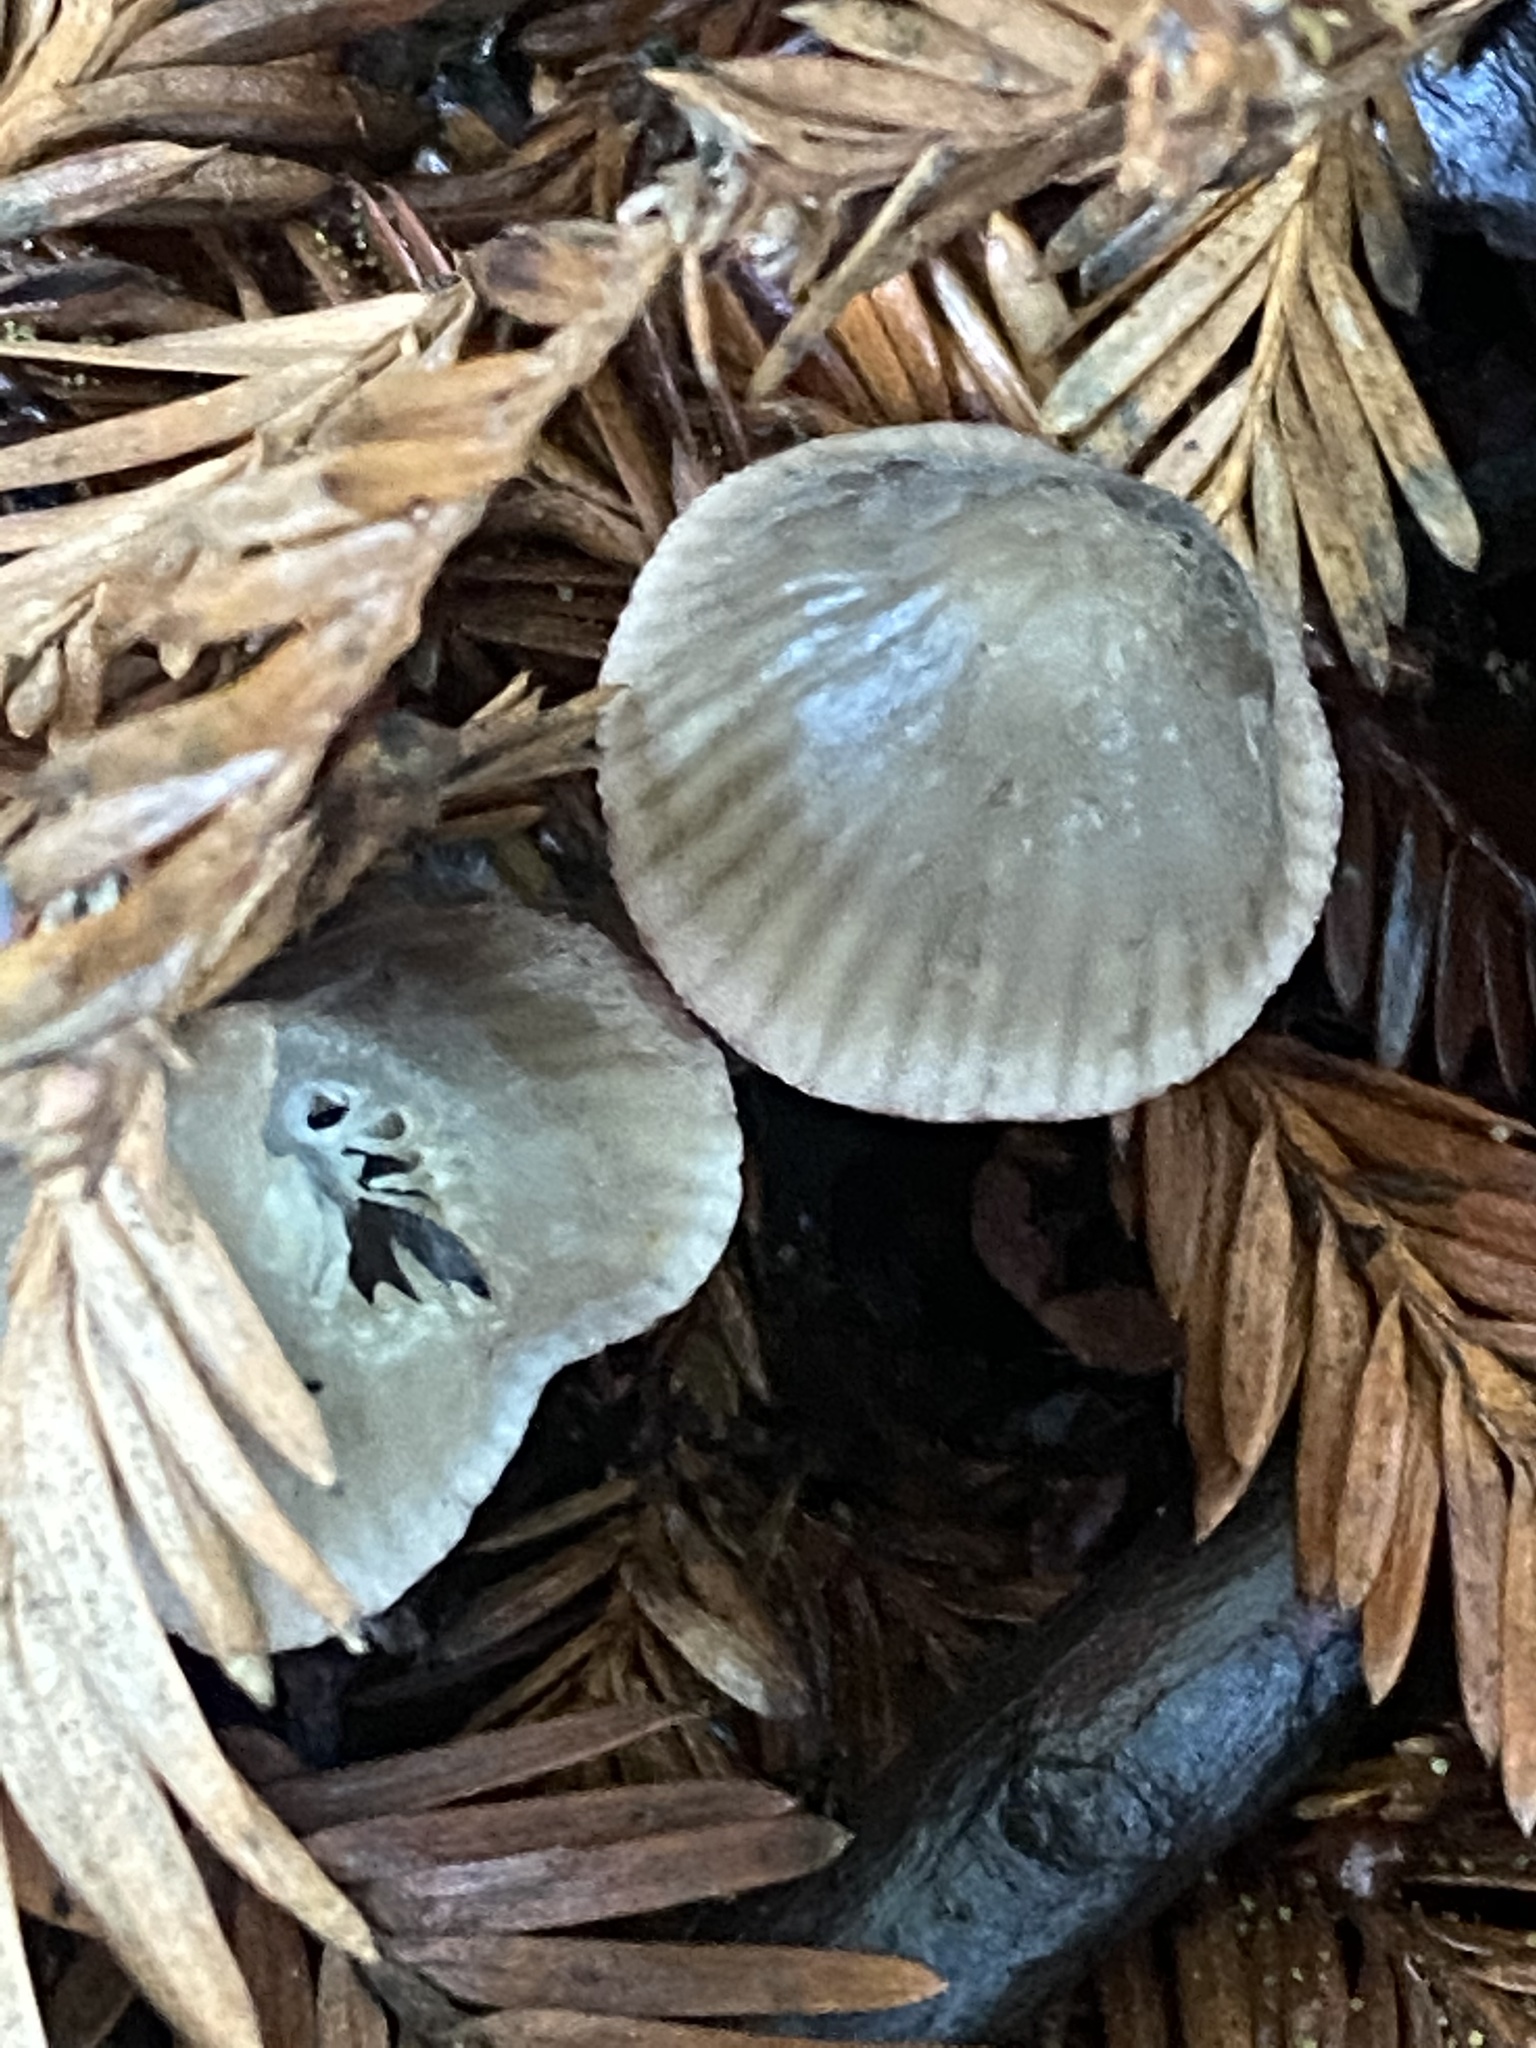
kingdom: Fungi
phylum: Basidiomycota
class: Agaricomycetes
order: Agaricales
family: Mycenaceae
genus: Mycena
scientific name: Mycena leptocephala
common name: Nitrous bonnet
